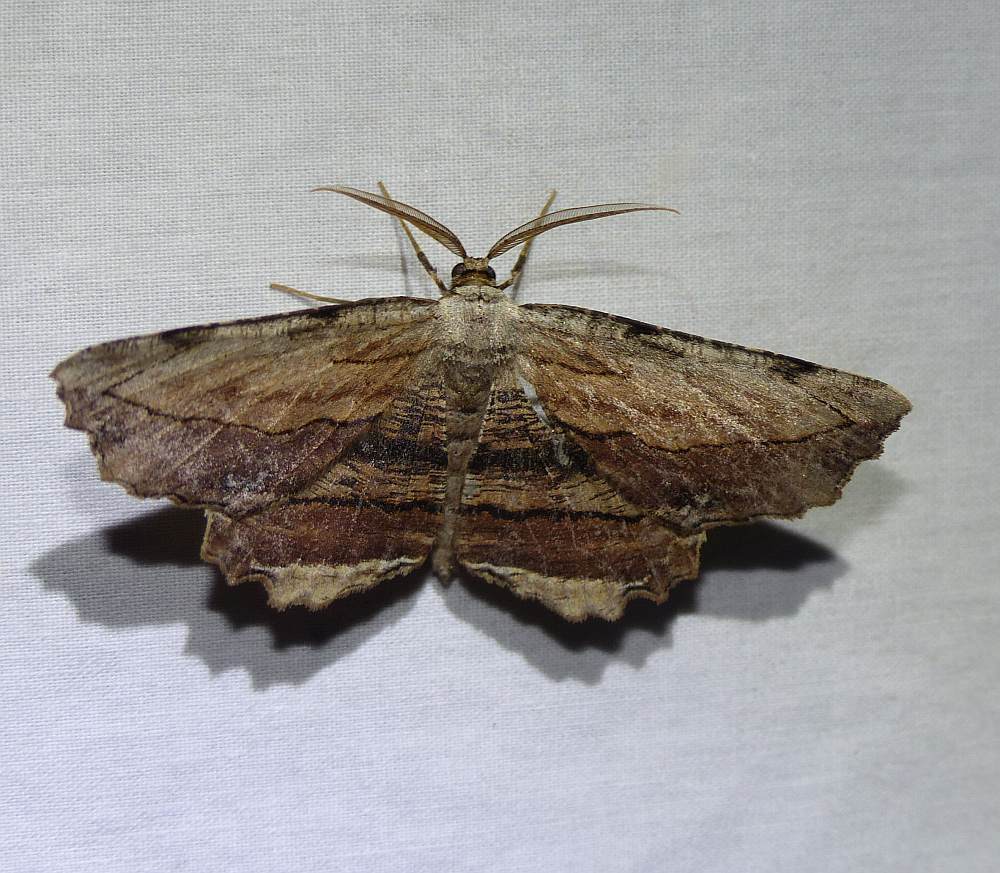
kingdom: Animalia
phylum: Arthropoda
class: Insecta
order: Lepidoptera
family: Geometridae
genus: Lytrosis
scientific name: Lytrosis unitaria
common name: Common lytrosis
